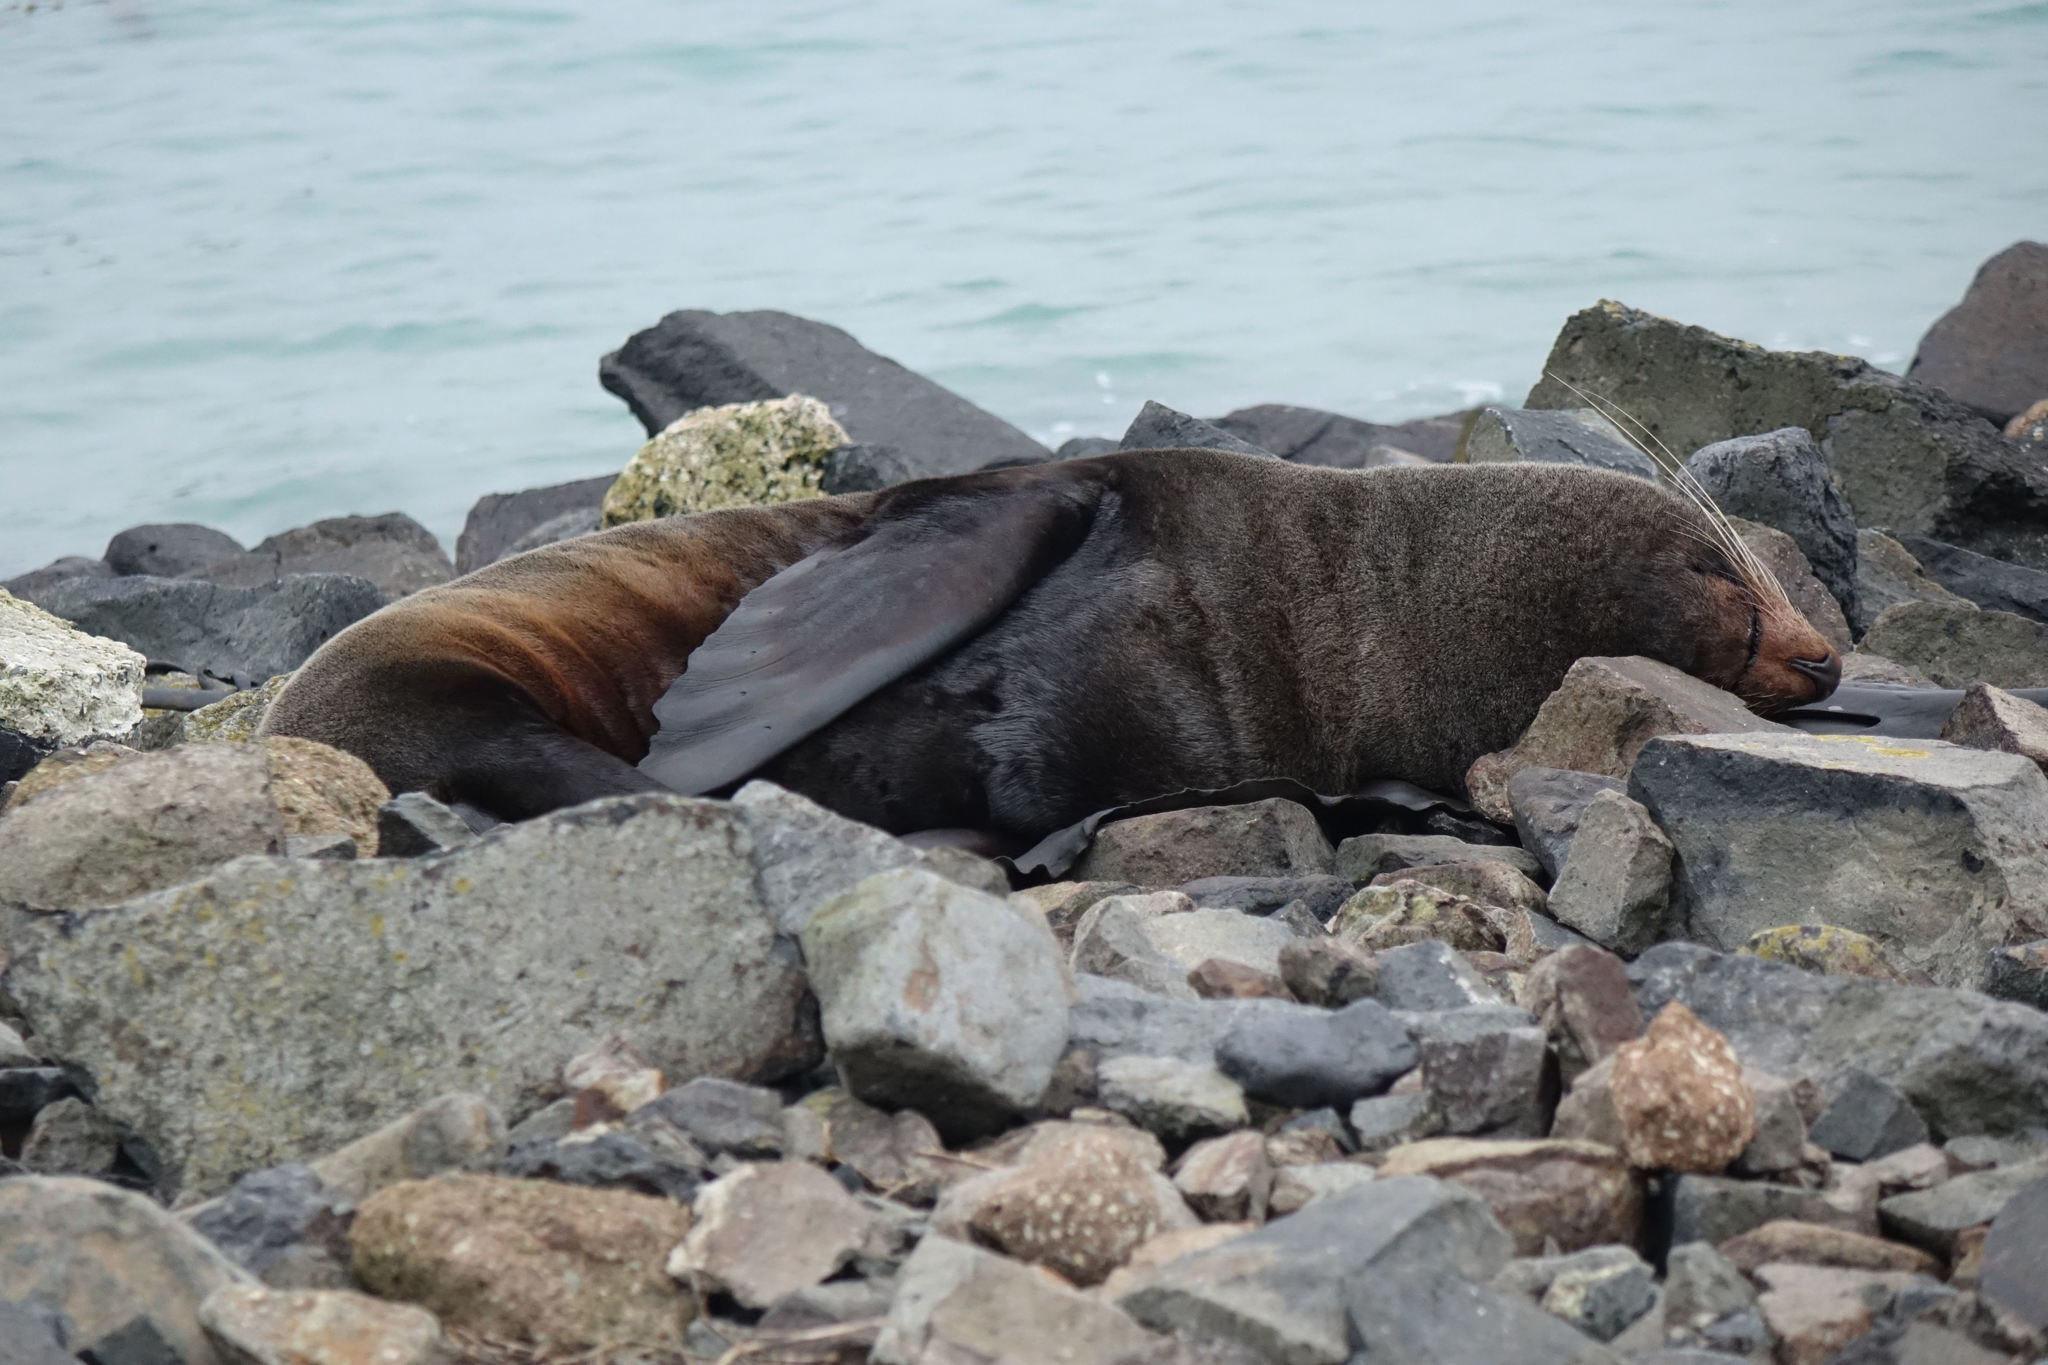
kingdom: Animalia
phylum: Chordata
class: Mammalia
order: Carnivora
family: Otariidae
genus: Arctocephalus
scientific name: Arctocephalus forsteri
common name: New zealand fur seal
